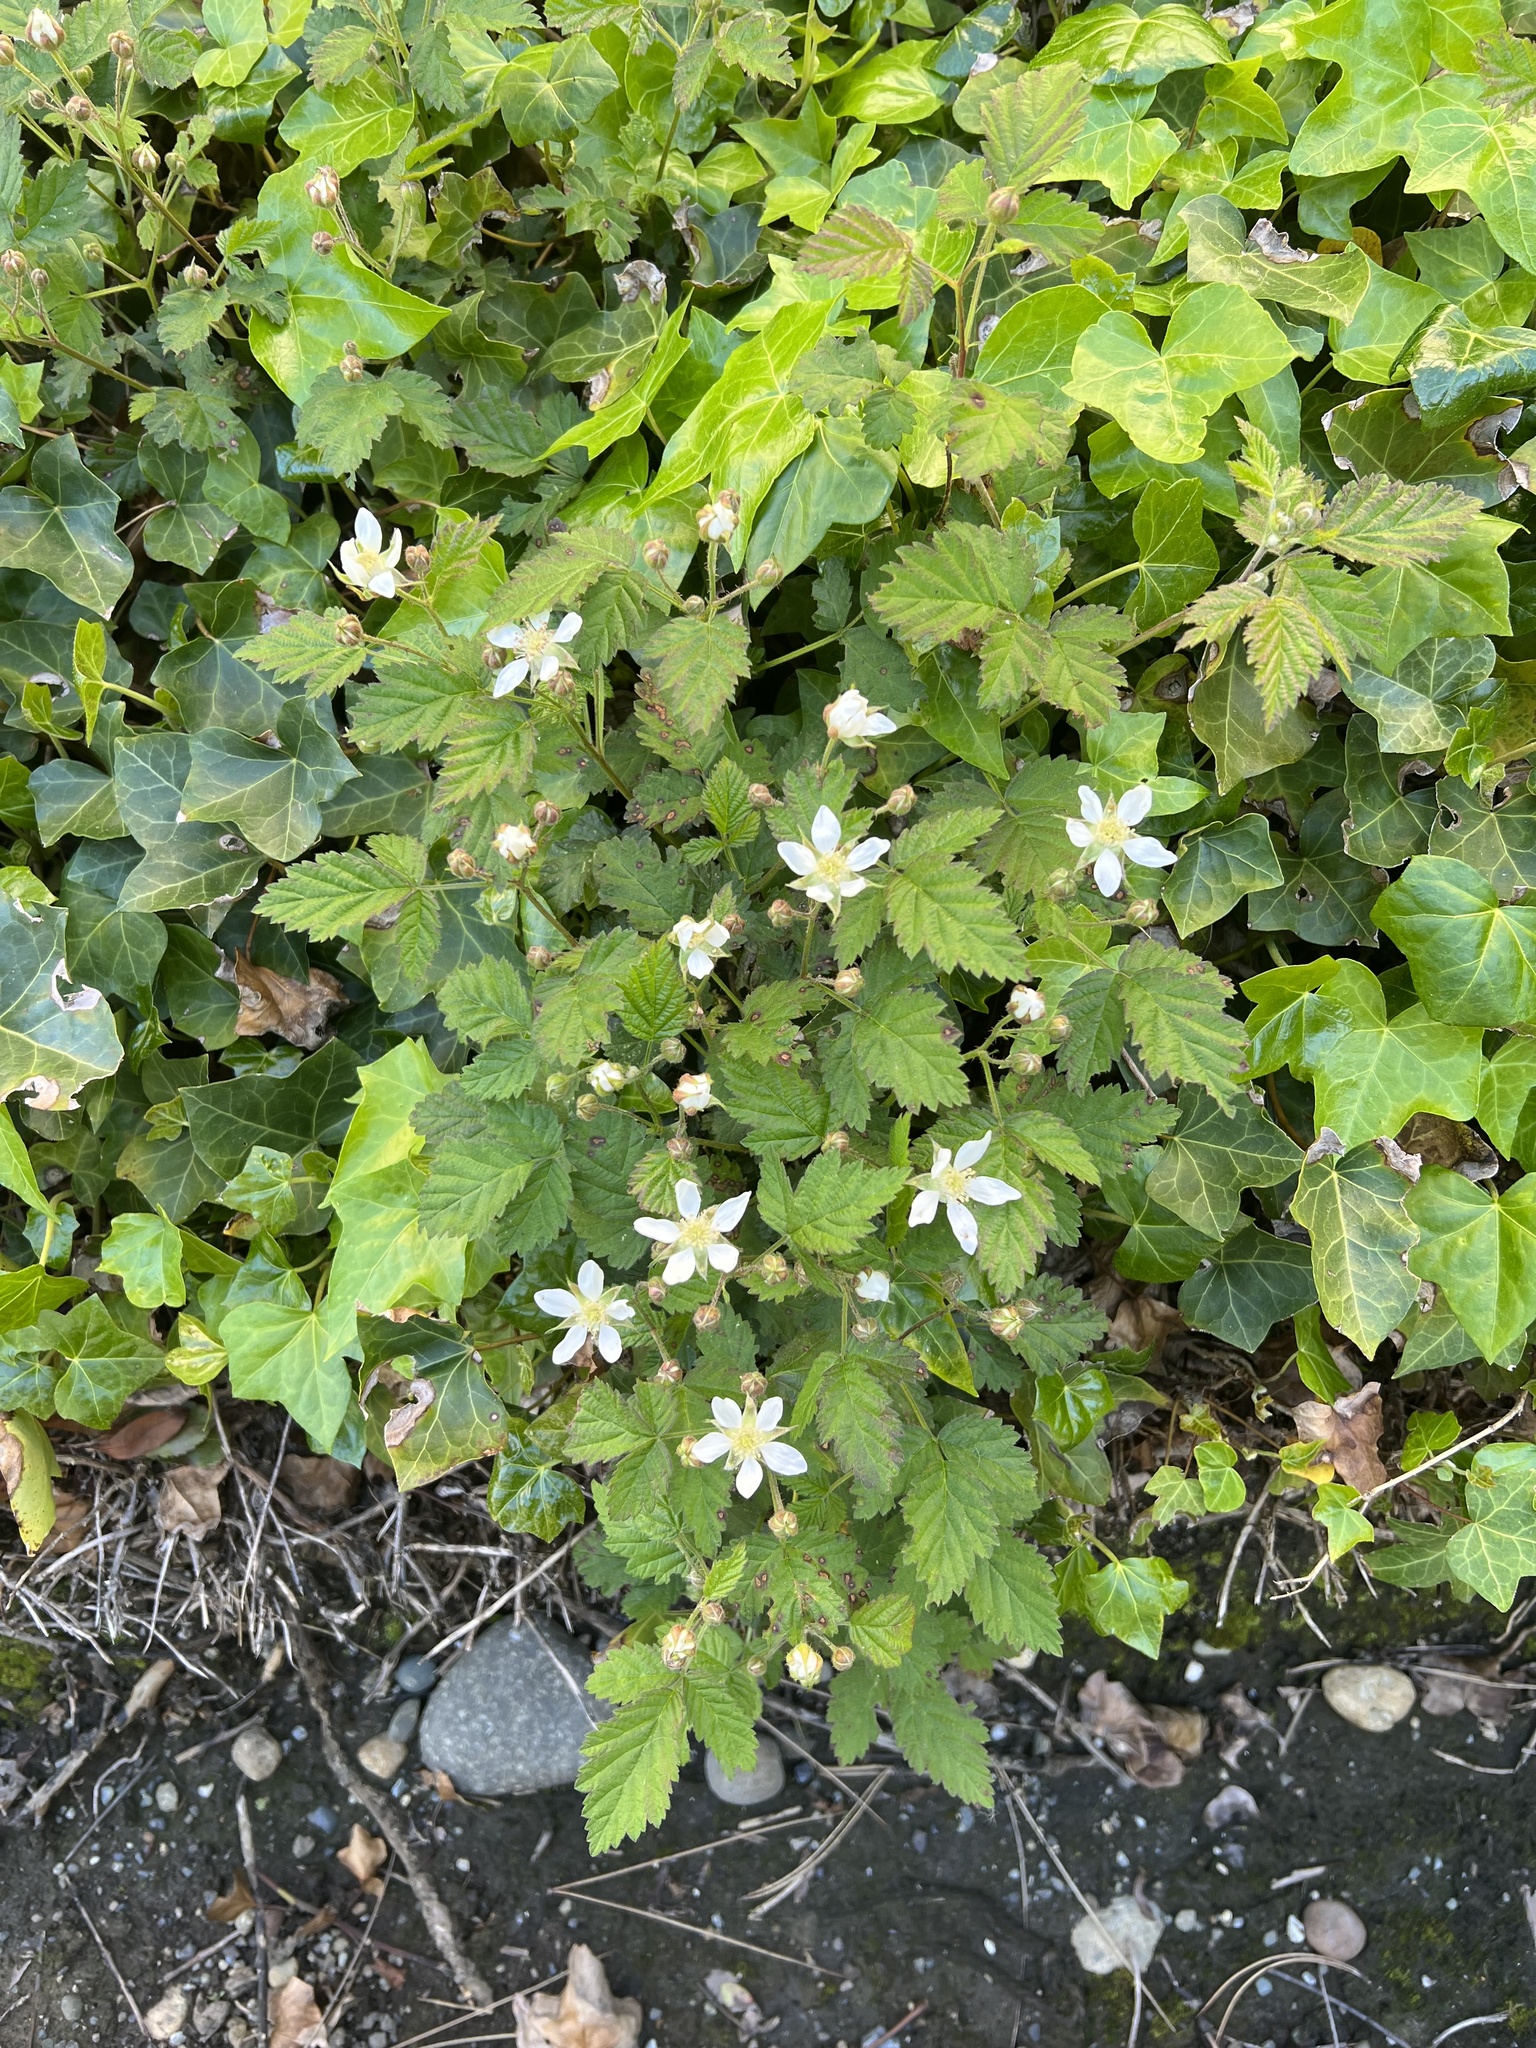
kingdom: Plantae
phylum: Tracheophyta
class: Magnoliopsida
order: Rosales
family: Rosaceae
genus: Rubus
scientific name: Rubus ursinus
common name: Pacific blackberry
